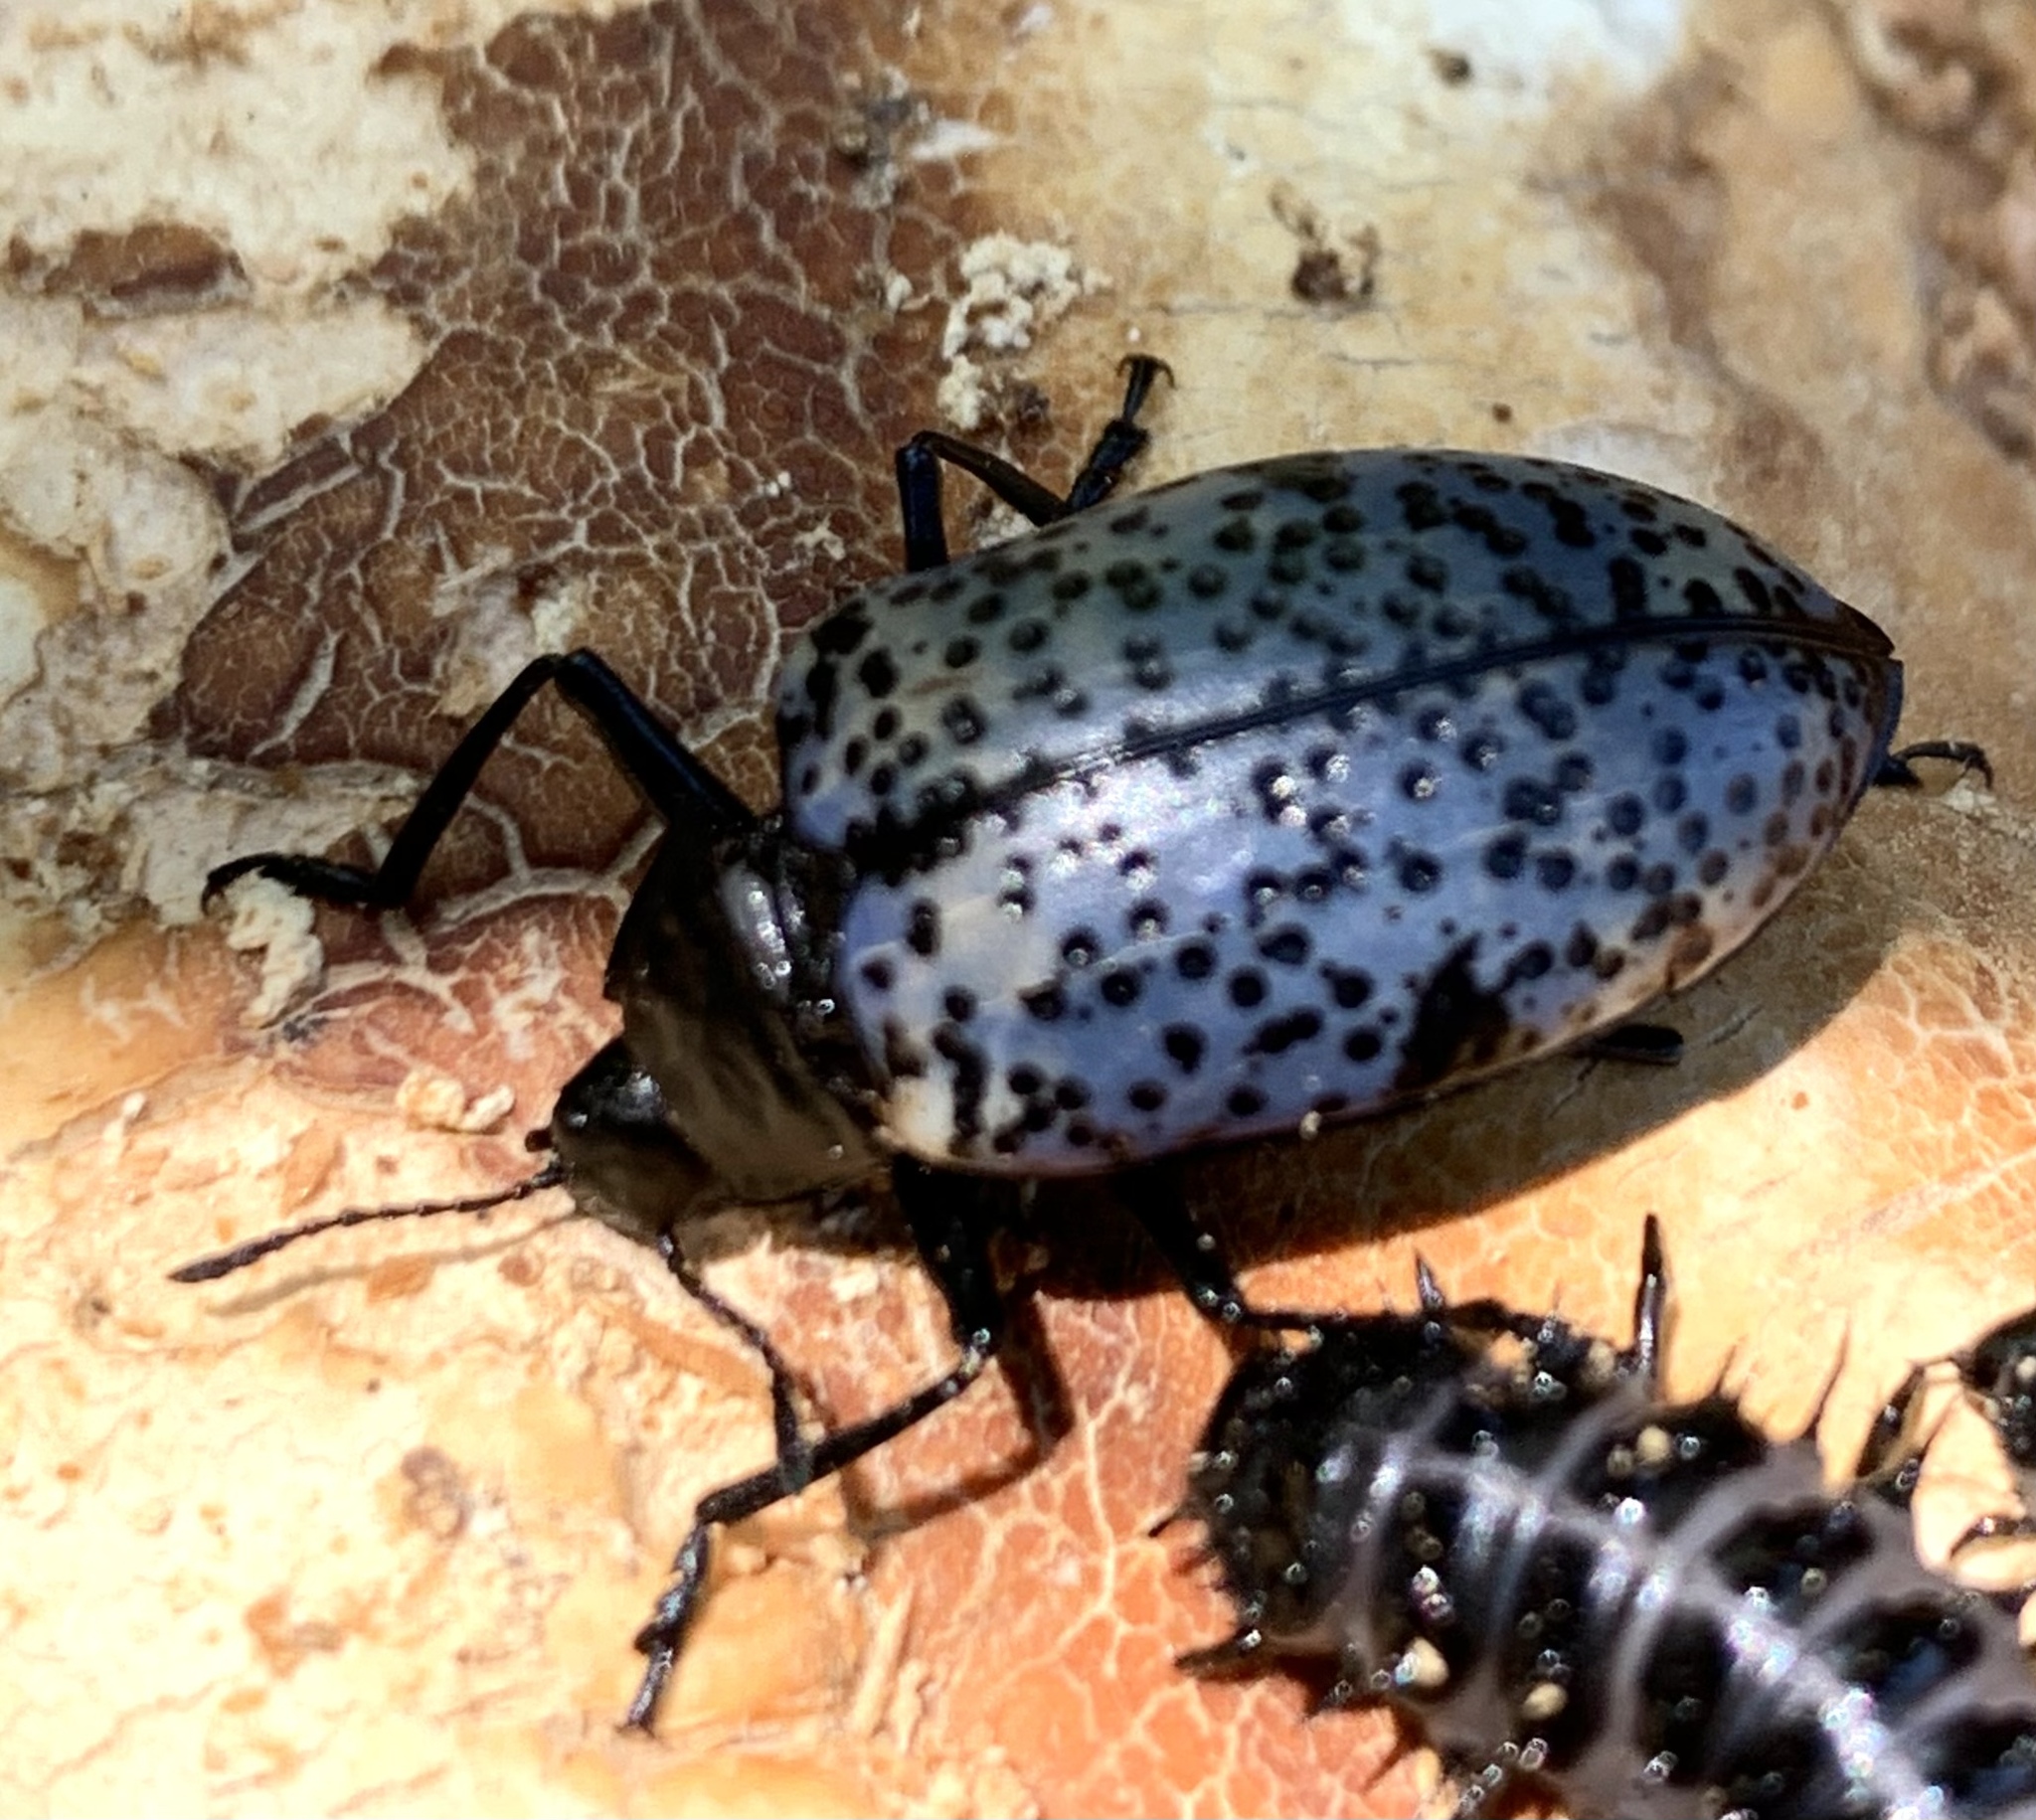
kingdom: Animalia
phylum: Arthropoda
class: Insecta
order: Coleoptera
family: Erotylidae
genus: Gibbifer
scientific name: Gibbifer californicus
